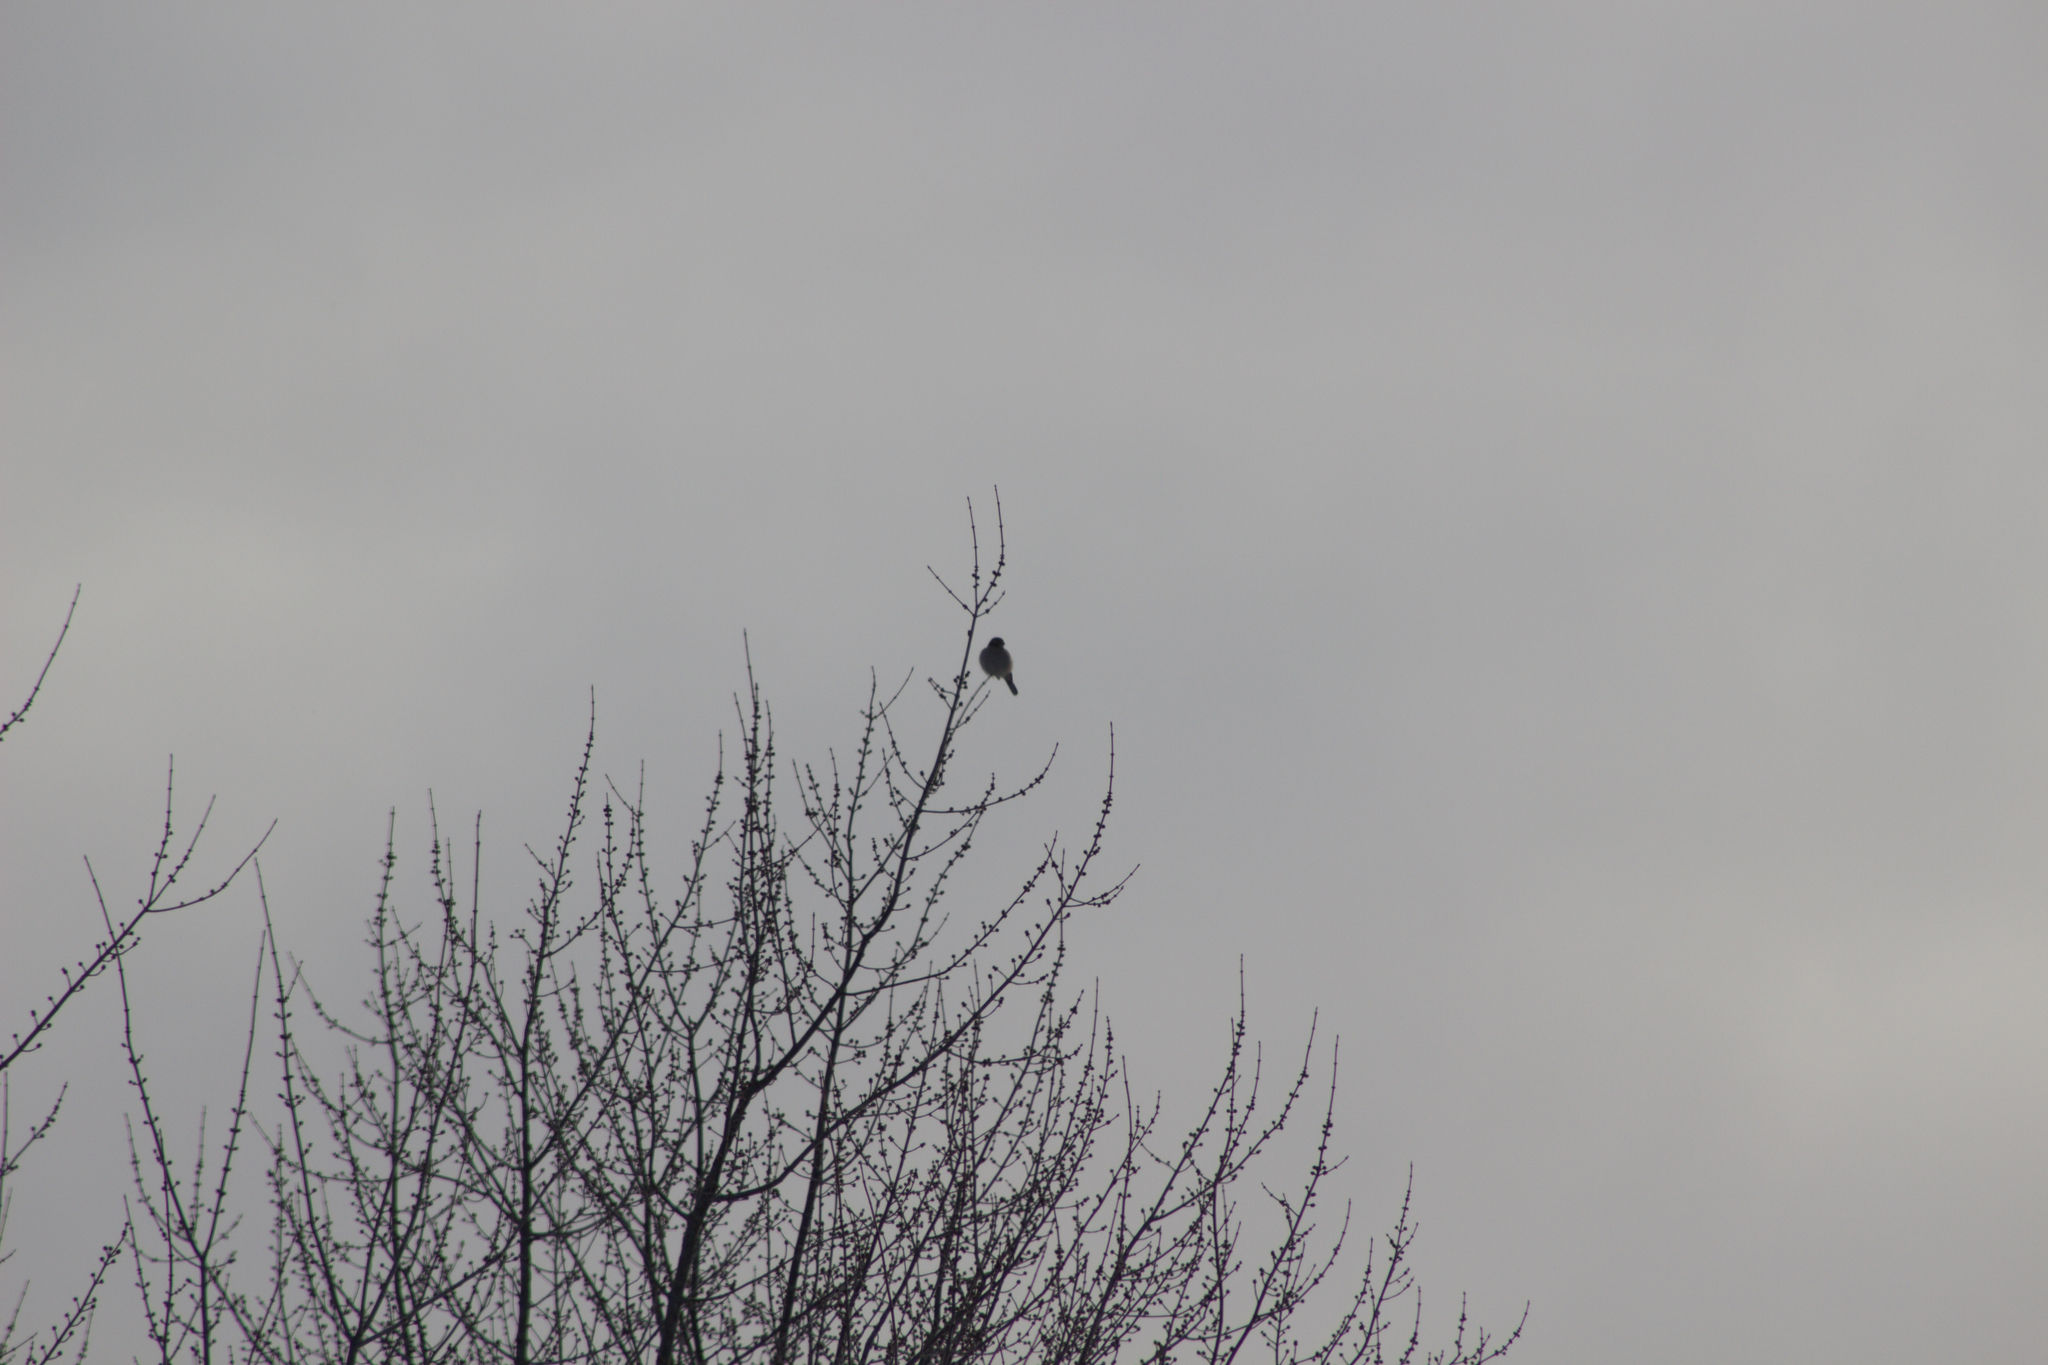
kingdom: Animalia
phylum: Chordata
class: Aves
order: Passeriformes
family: Laniidae
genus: Lanius
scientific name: Lanius borealis
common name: Northern shrike
